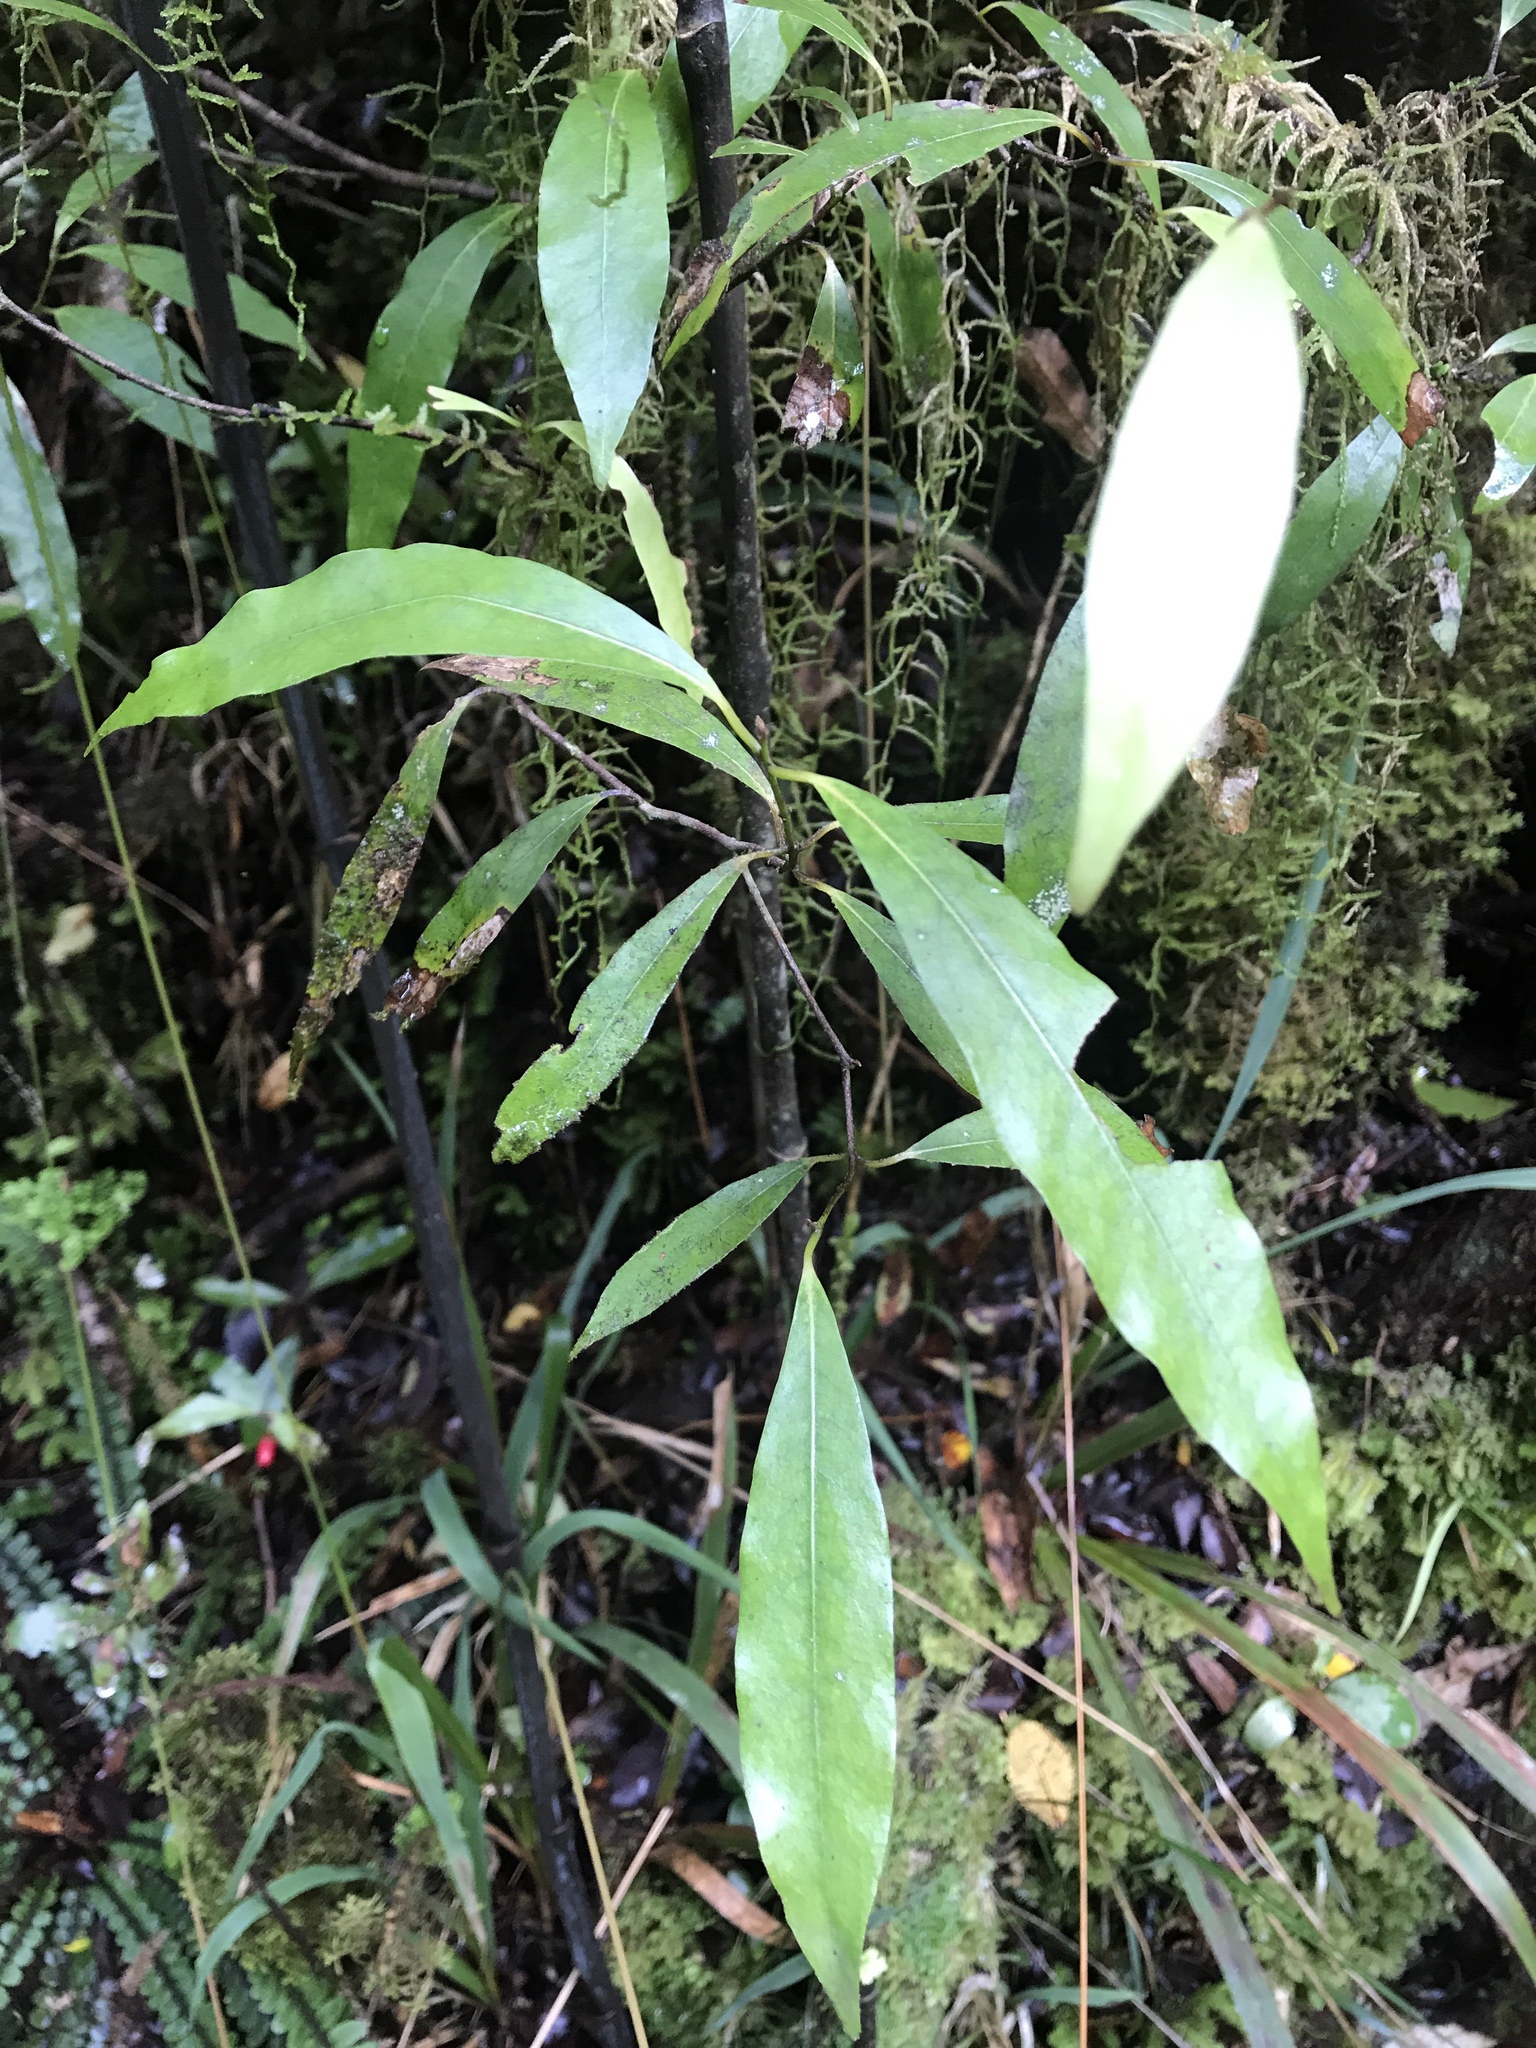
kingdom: Plantae
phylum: Tracheophyta
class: Magnoliopsida
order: Laurales
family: Lauraceae
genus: Beilschmiedia
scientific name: Beilschmiedia tawa
